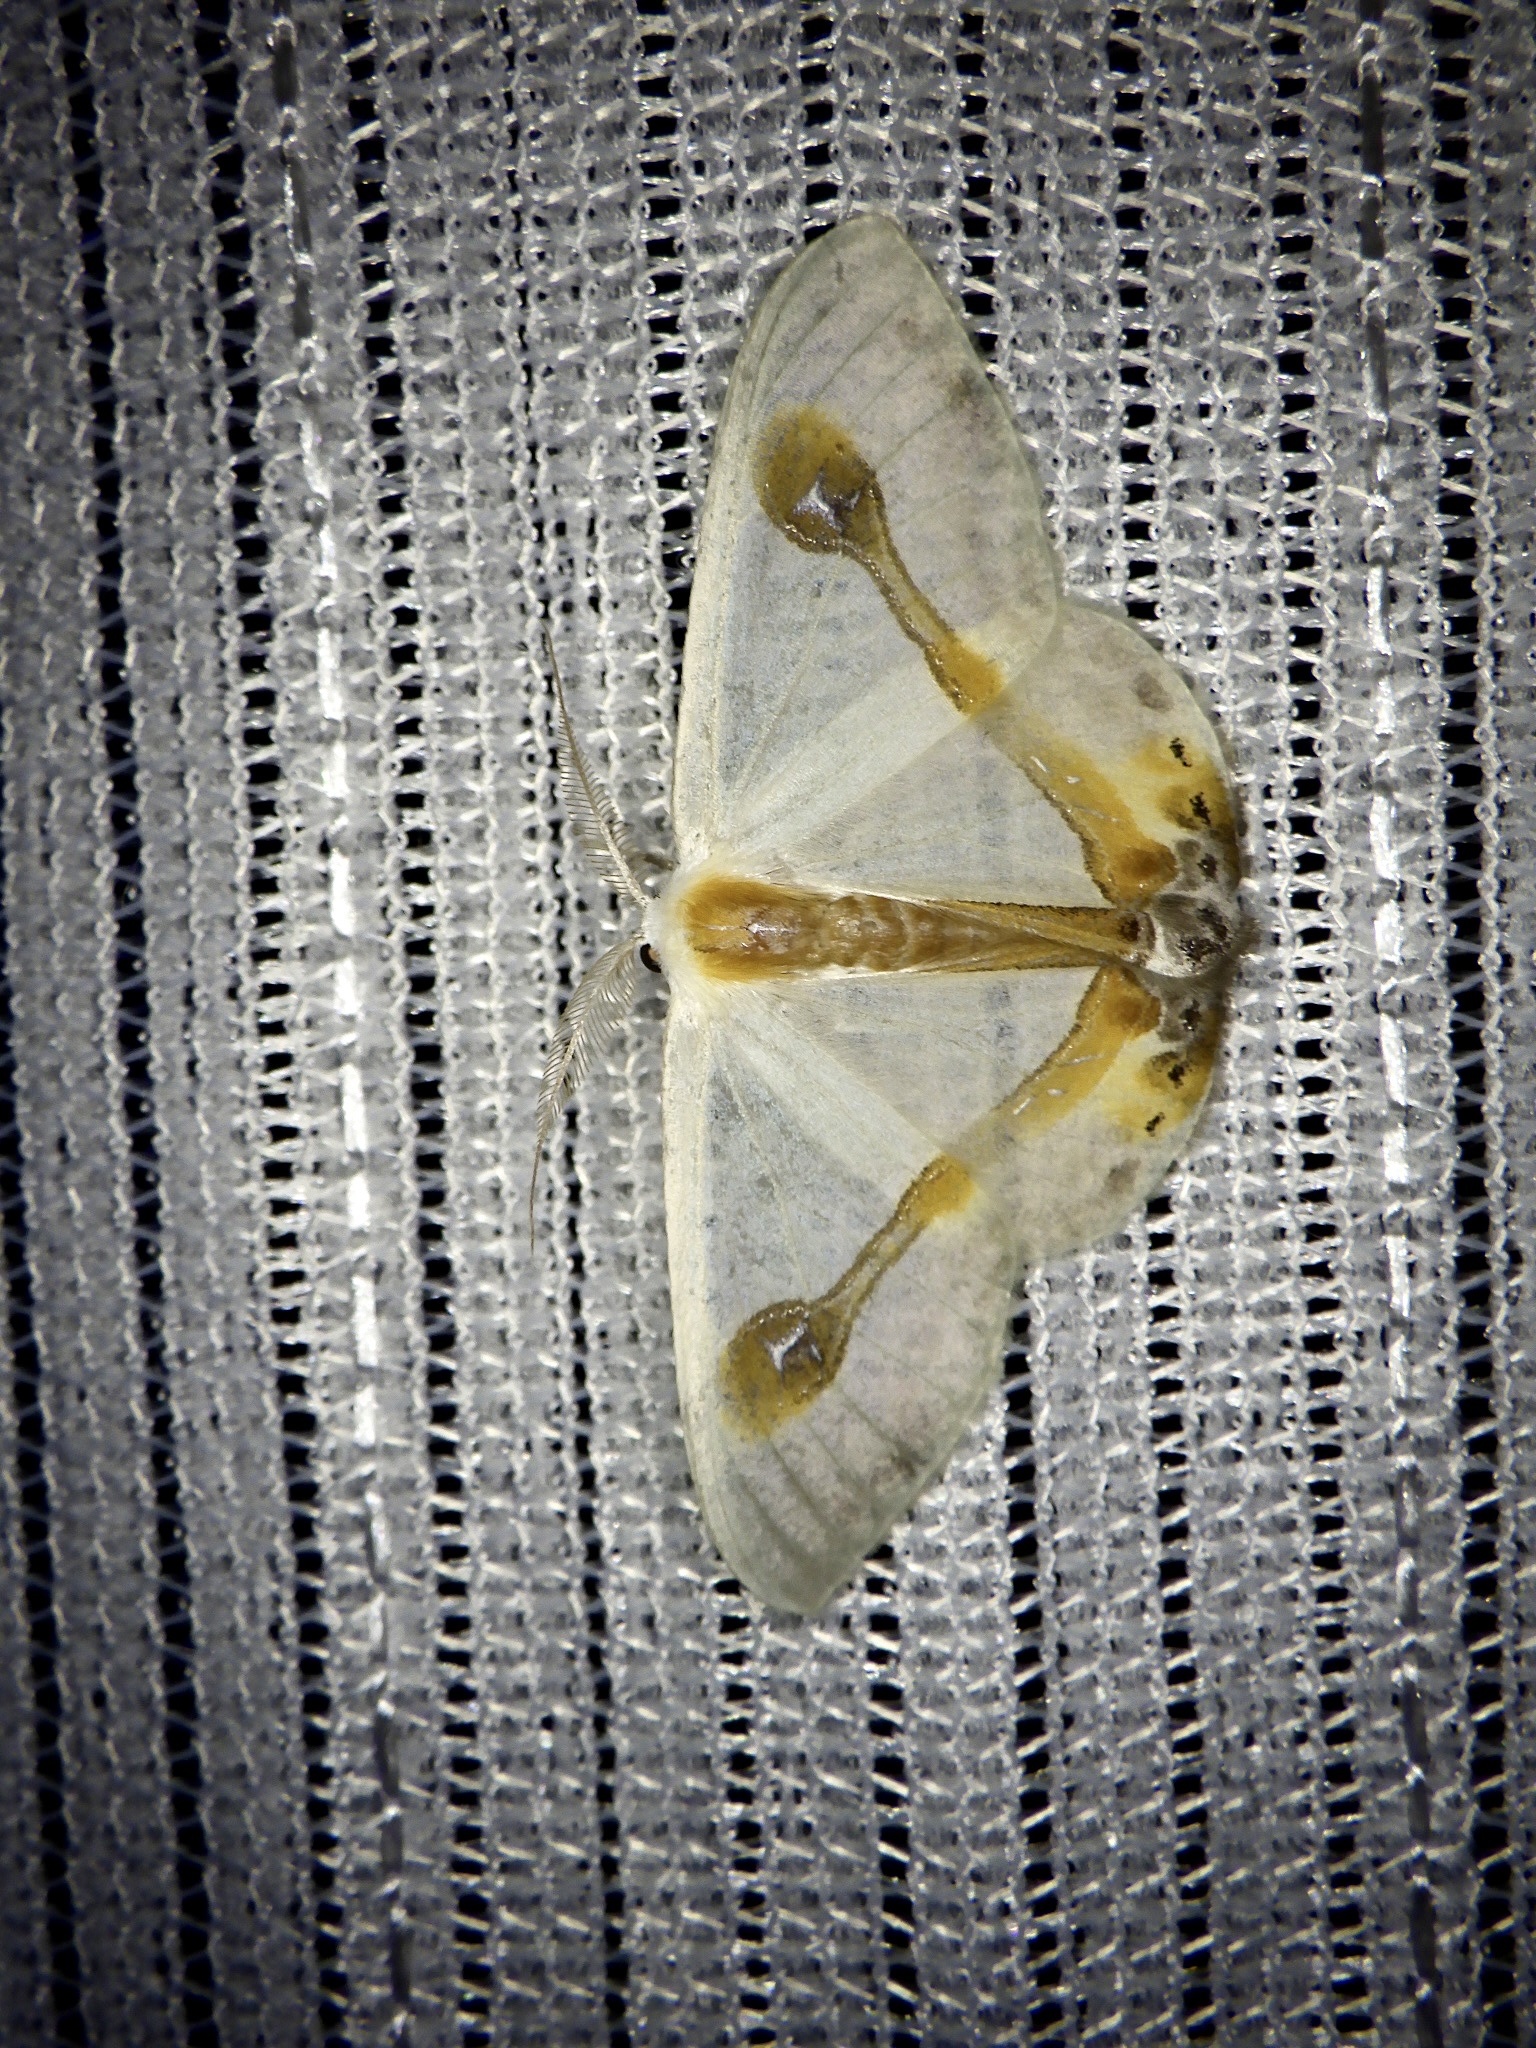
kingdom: Animalia
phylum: Arthropoda
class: Insecta
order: Lepidoptera
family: Drepanidae
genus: Macrocilix
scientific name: Macrocilix mysticata
